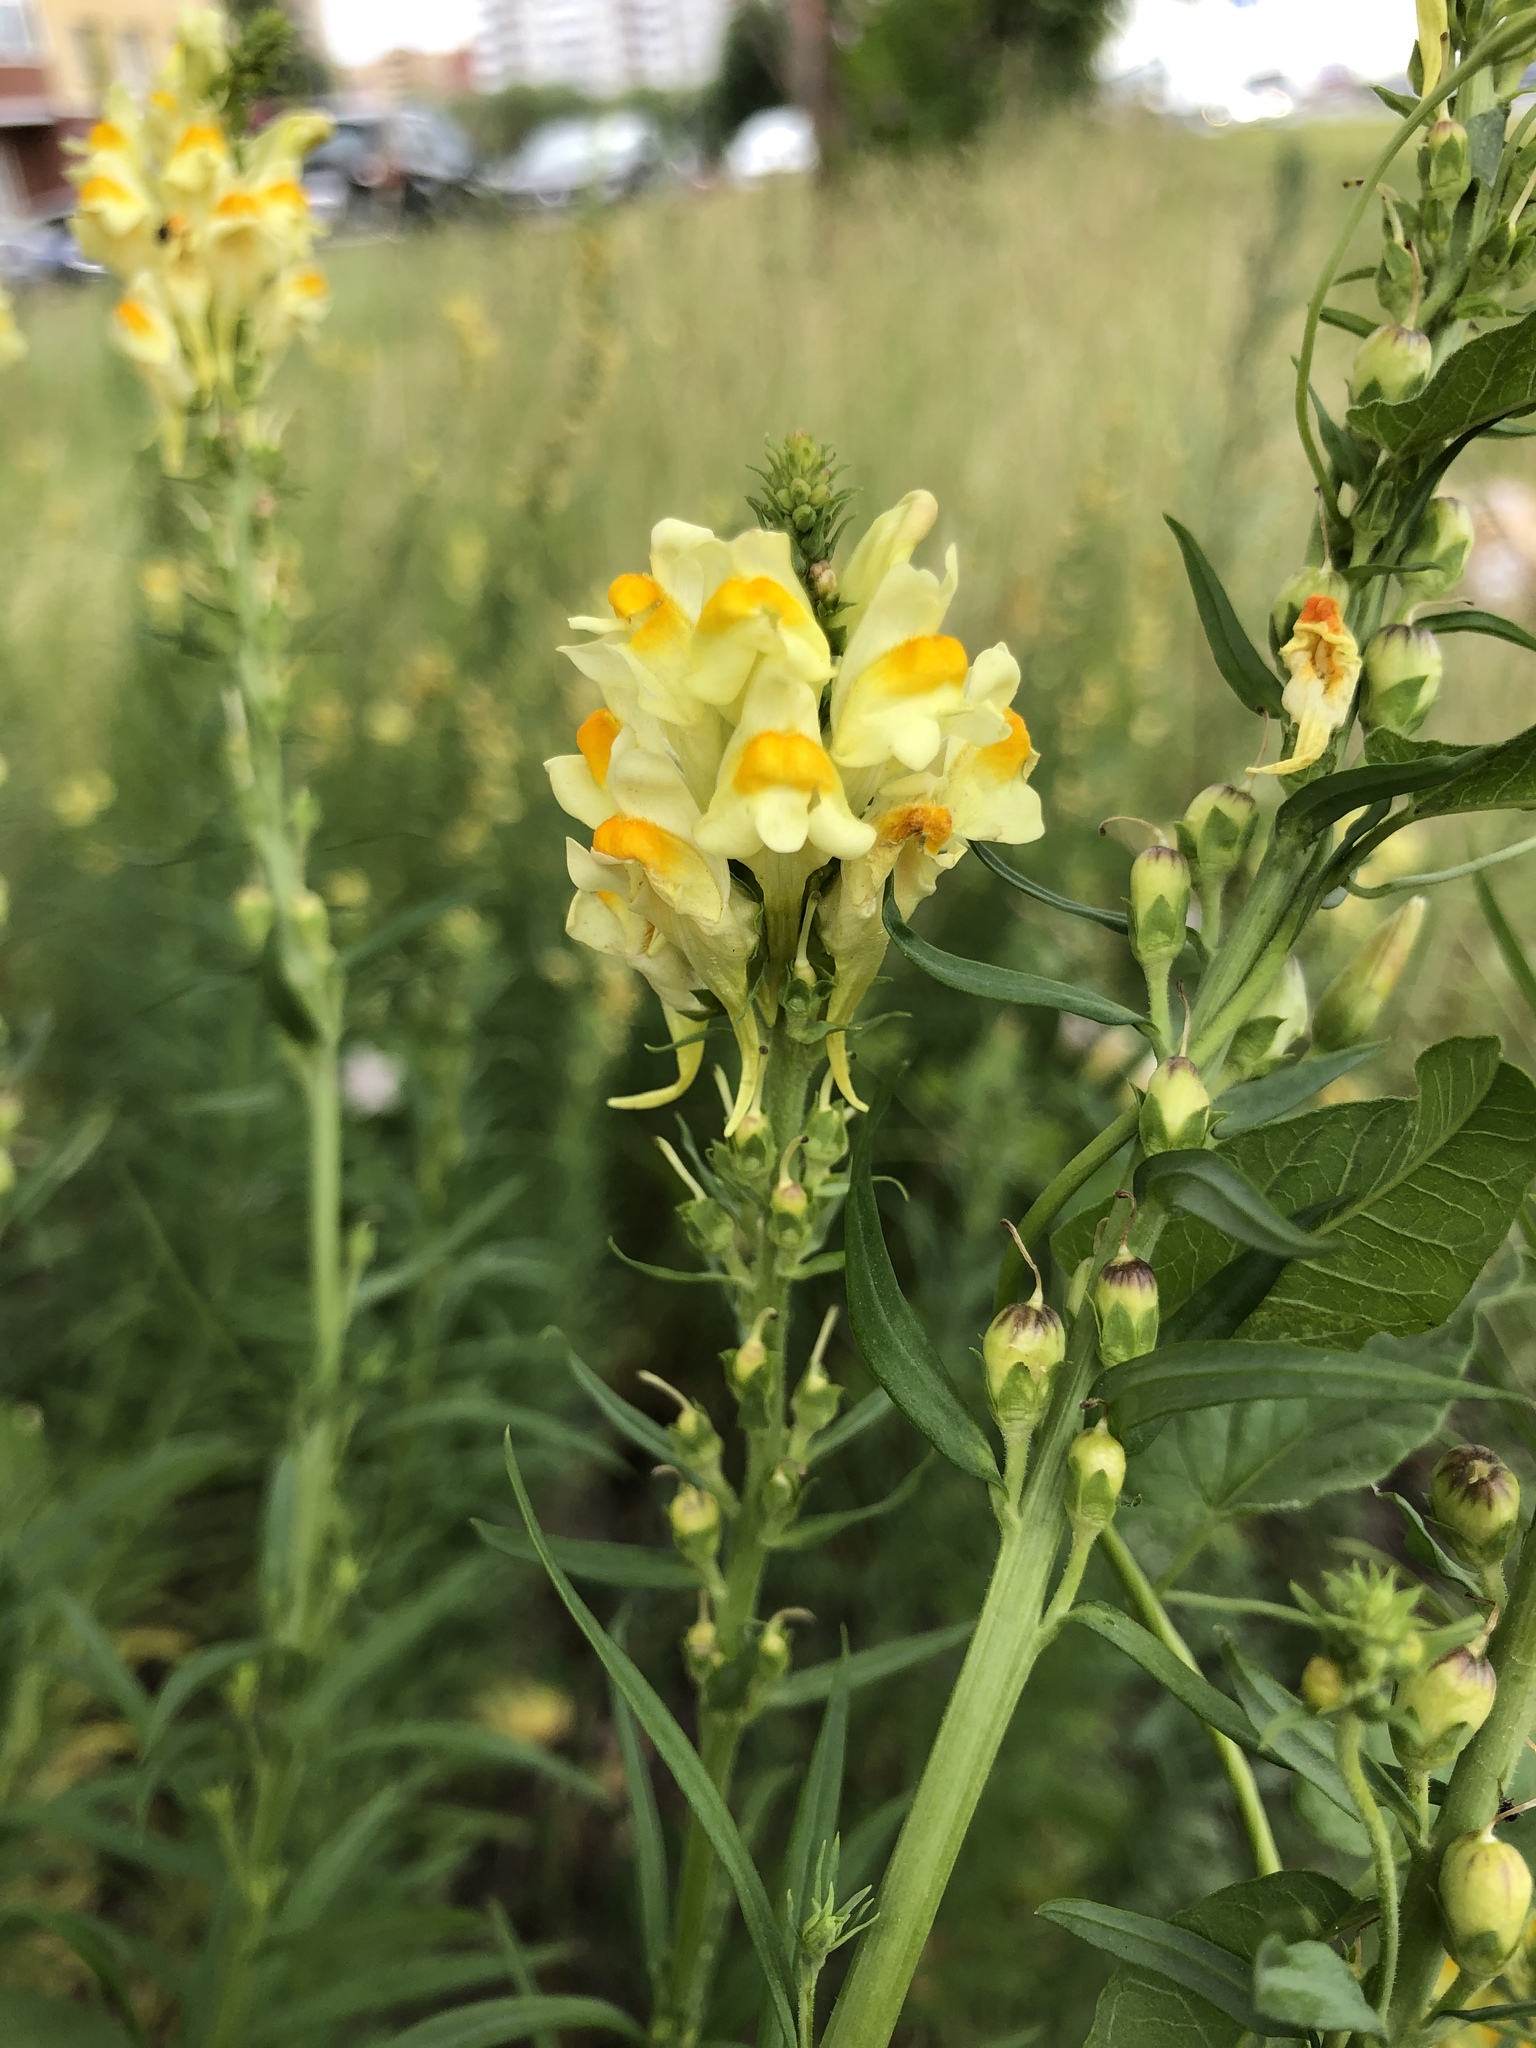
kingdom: Plantae
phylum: Tracheophyta
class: Magnoliopsida
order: Lamiales
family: Plantaginaceae
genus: Linaria
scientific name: Linaria vulgaris
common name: Butter and eggs
